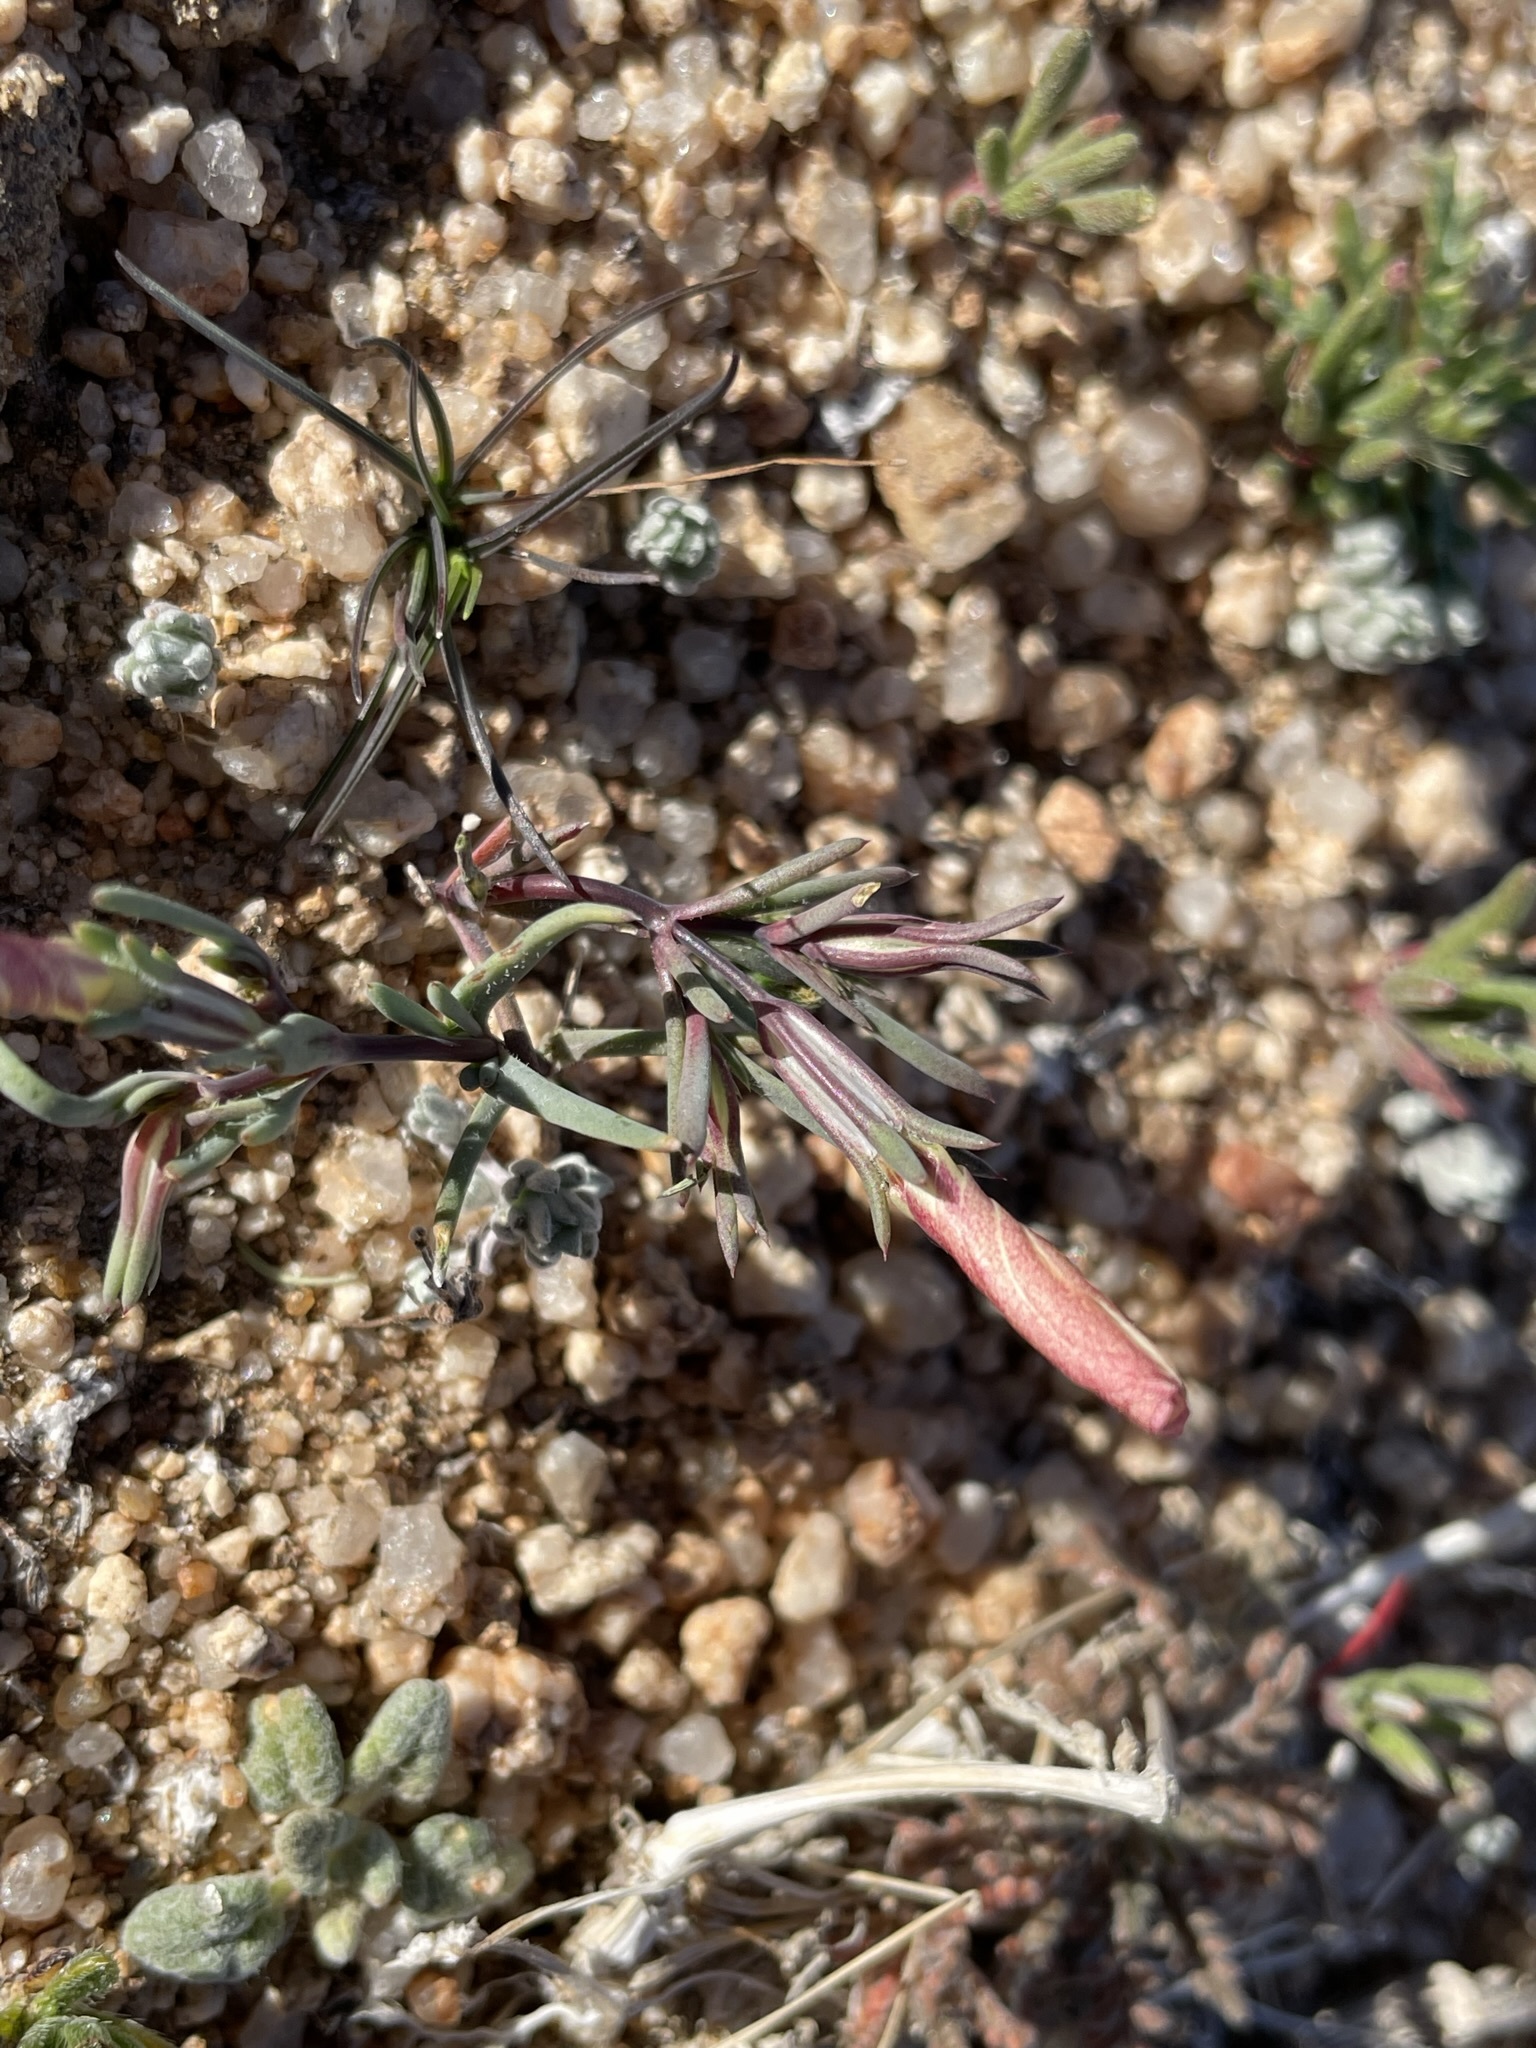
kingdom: Plantae
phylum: Tracheophyta
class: Magnoliopsida
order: Ericales
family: Polemoniaceae
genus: Linanthus
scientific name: Linanthus dichotomus
